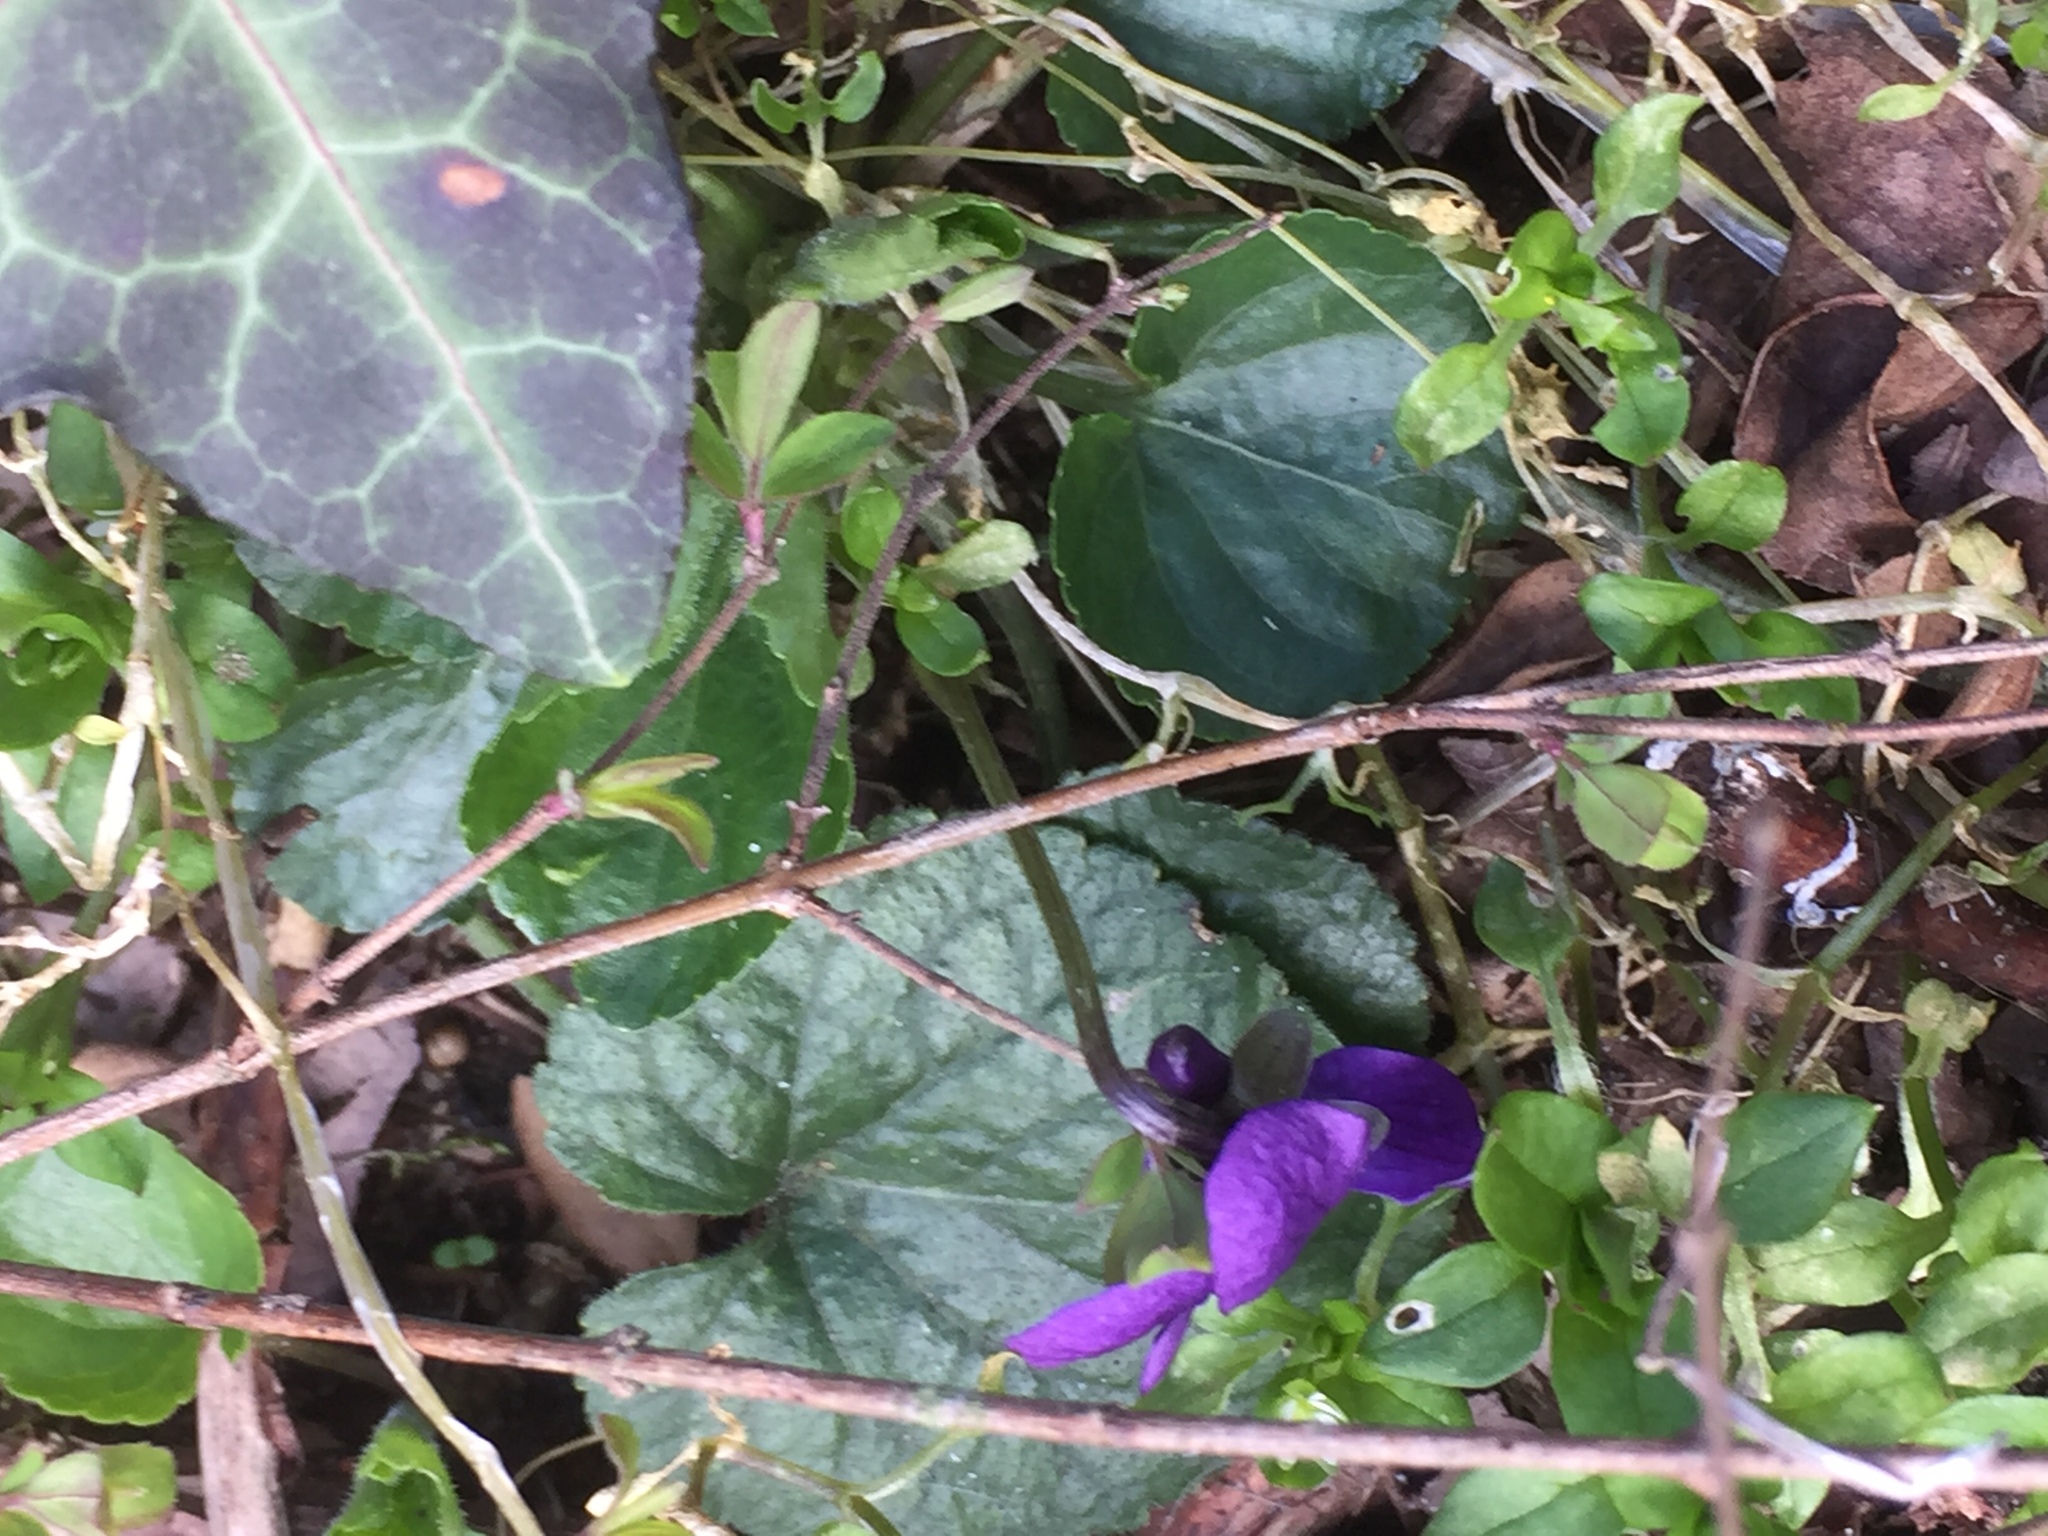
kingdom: Plantae
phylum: Tracheophyta
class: Magnoliopsida
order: Malpighiales
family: Violaceae
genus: Viola
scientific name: Viola odorata
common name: Sweet violet
